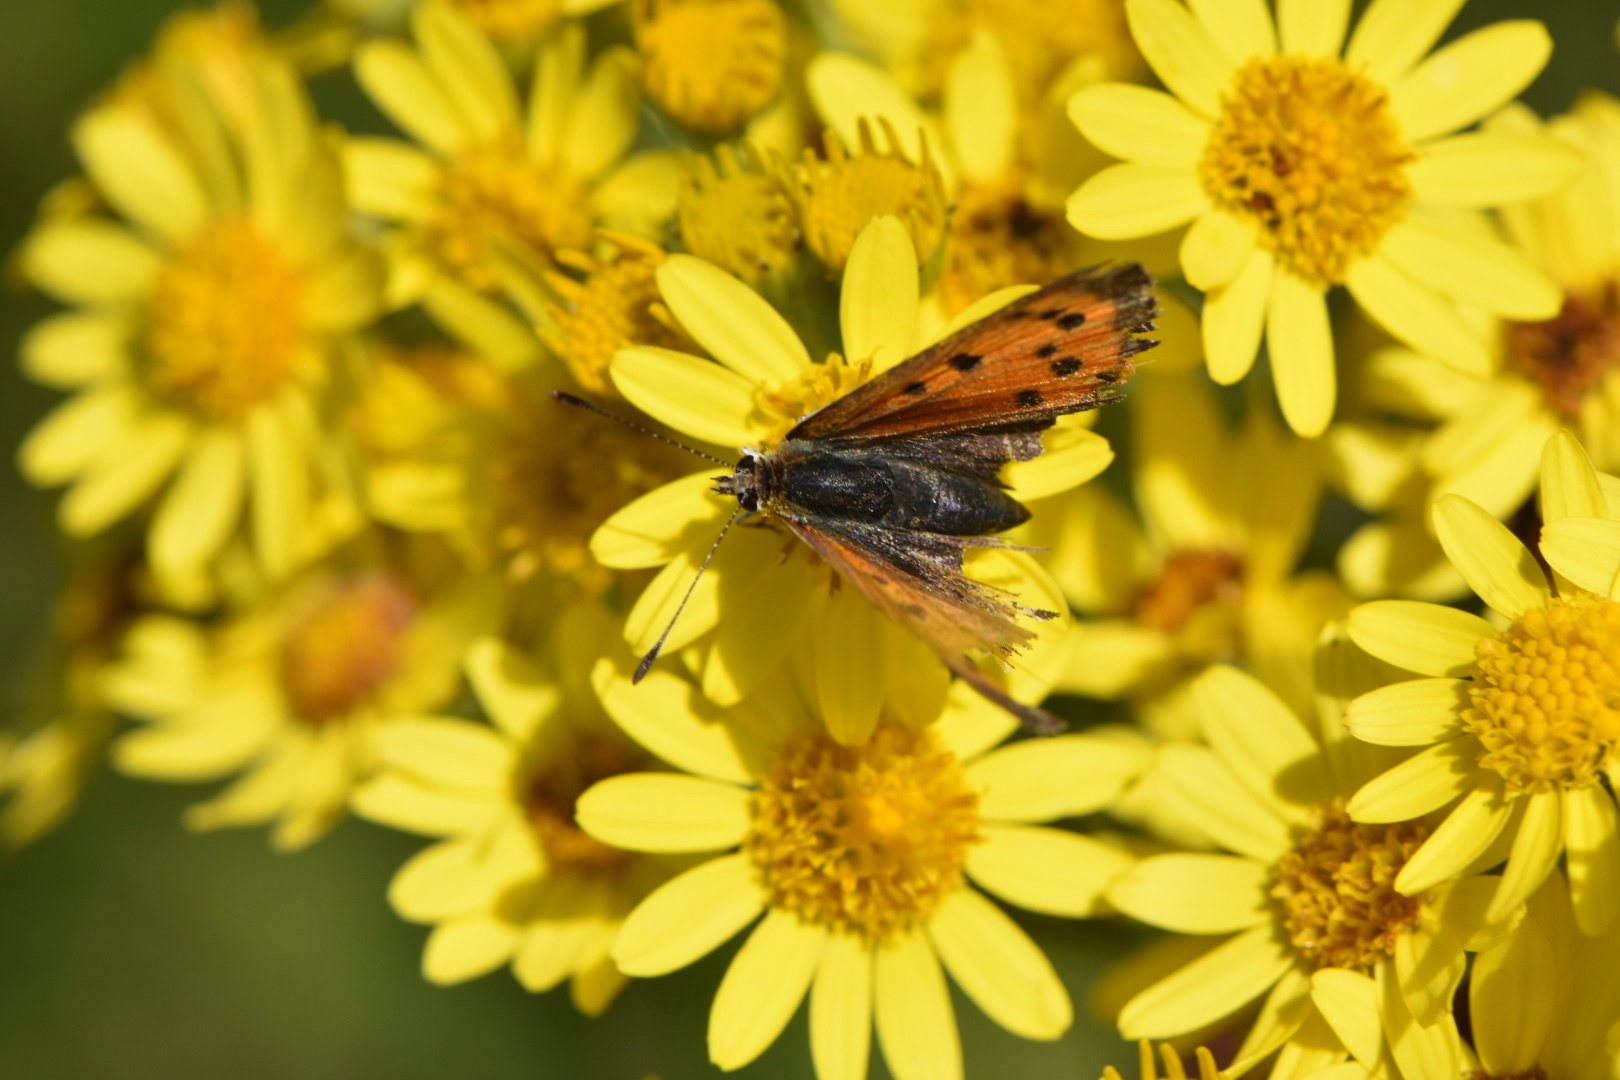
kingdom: Animalia
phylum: Arthropoda
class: Insecta
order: Lepidoptera
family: Lycaenidae
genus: Lycaena
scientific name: Lycaena phlaeas
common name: Small copper
